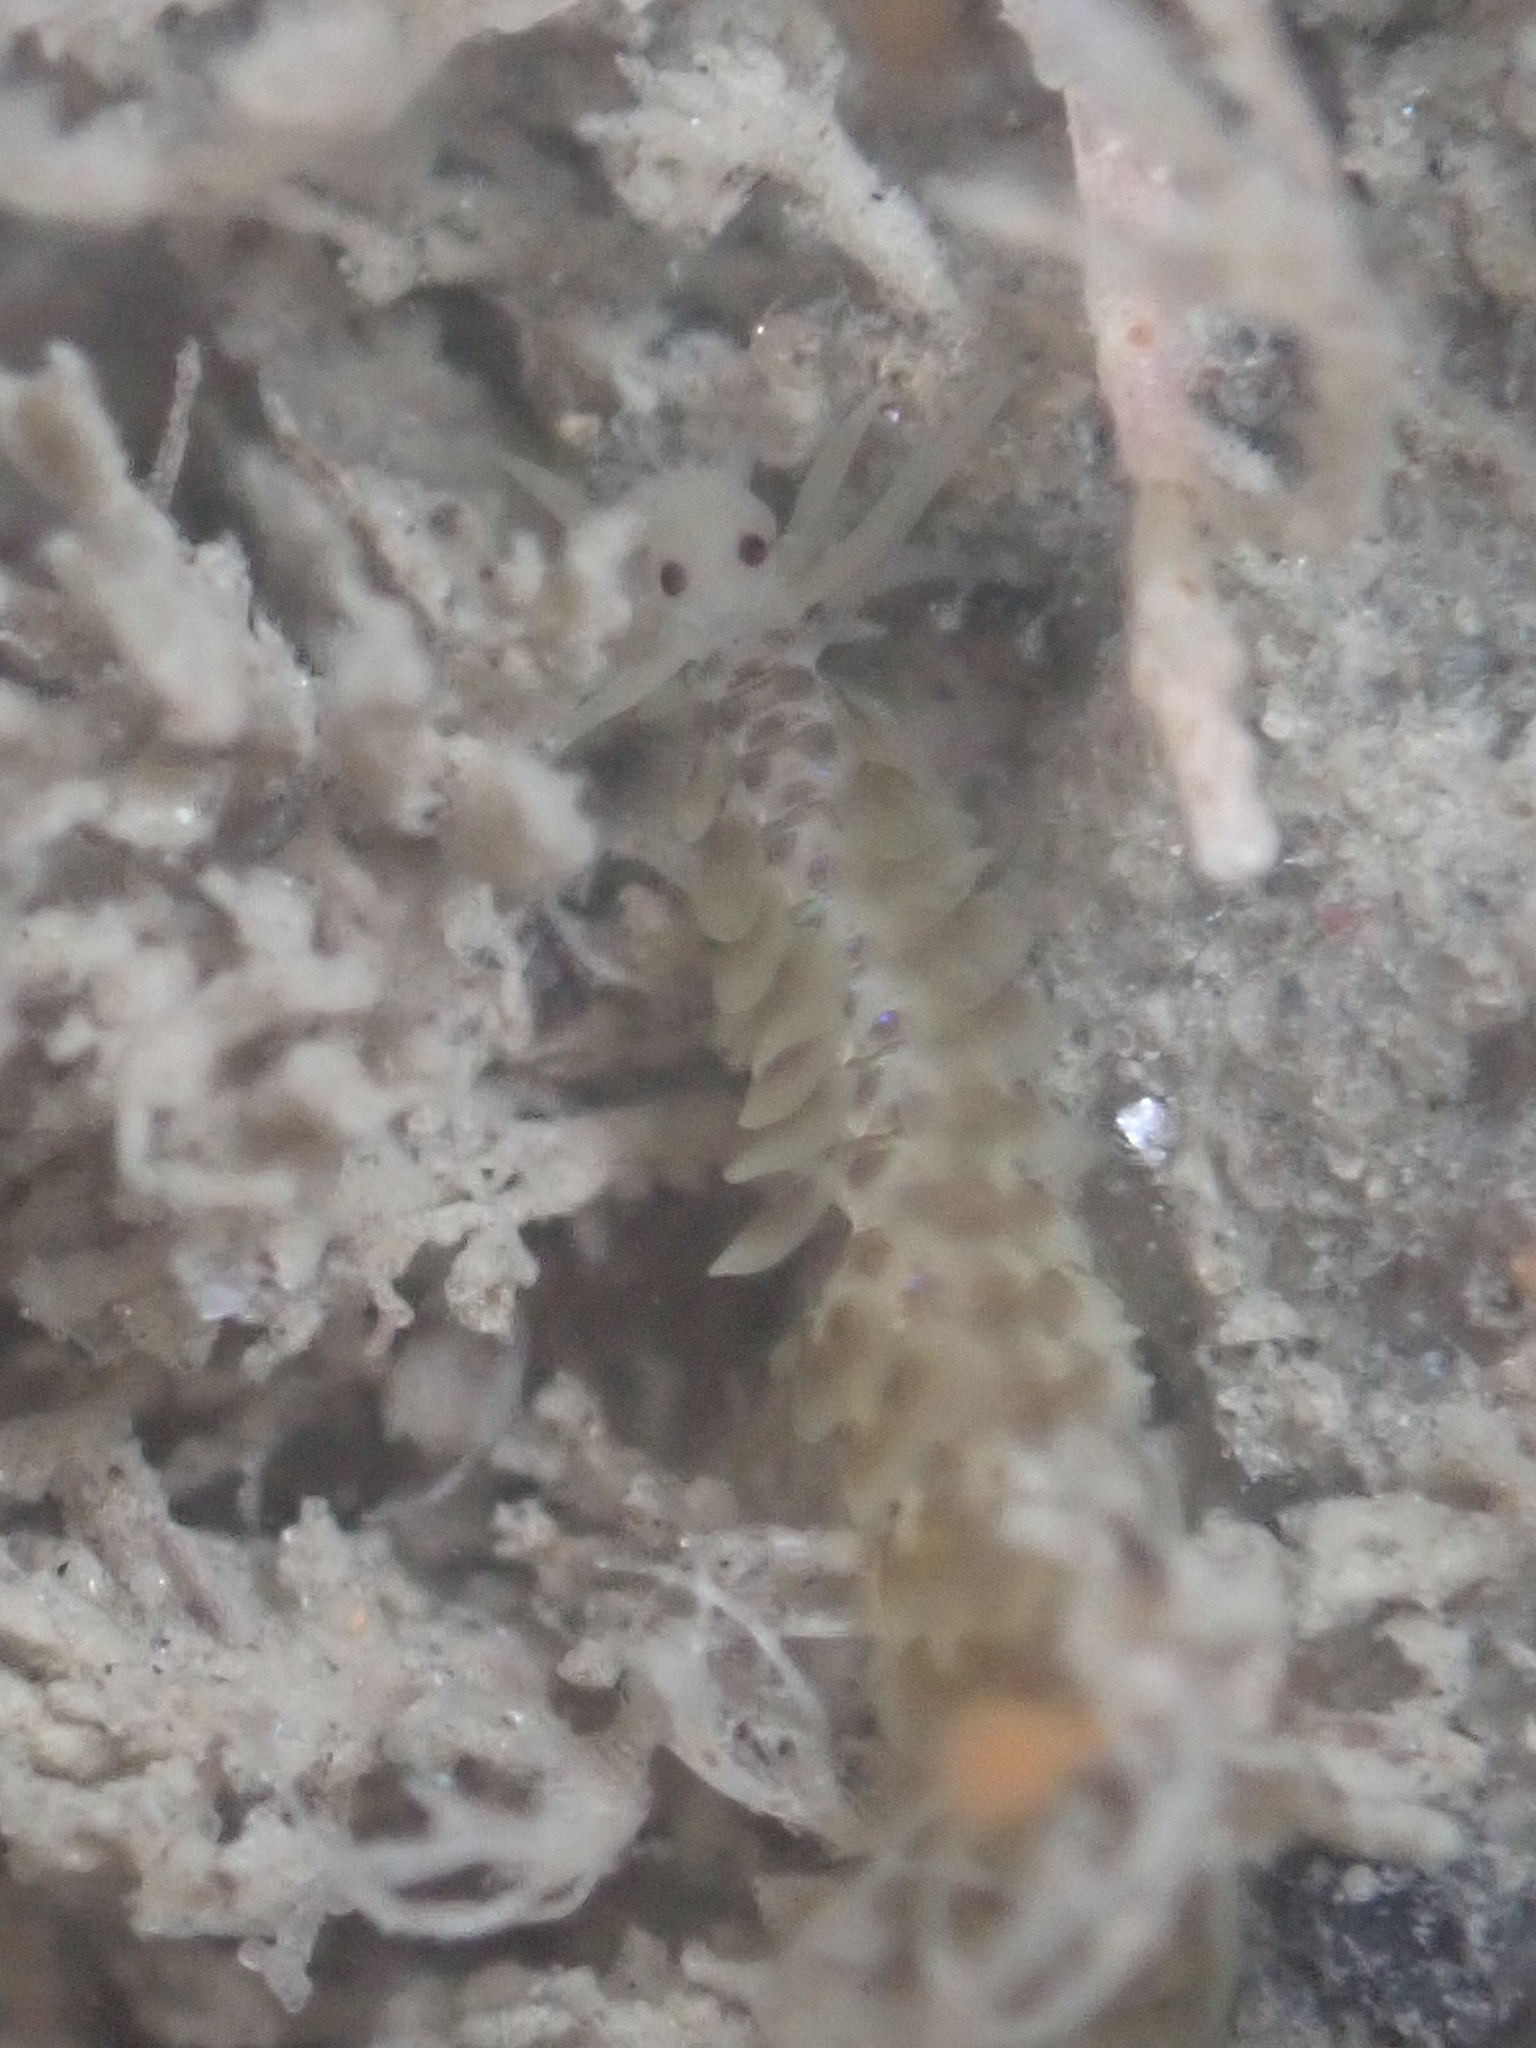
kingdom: Animalia
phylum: Annelida
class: Polychaeta
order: Phyllodocida
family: Phyllodocidae
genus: Phyllodoce
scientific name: Phyllodoce williamsi
